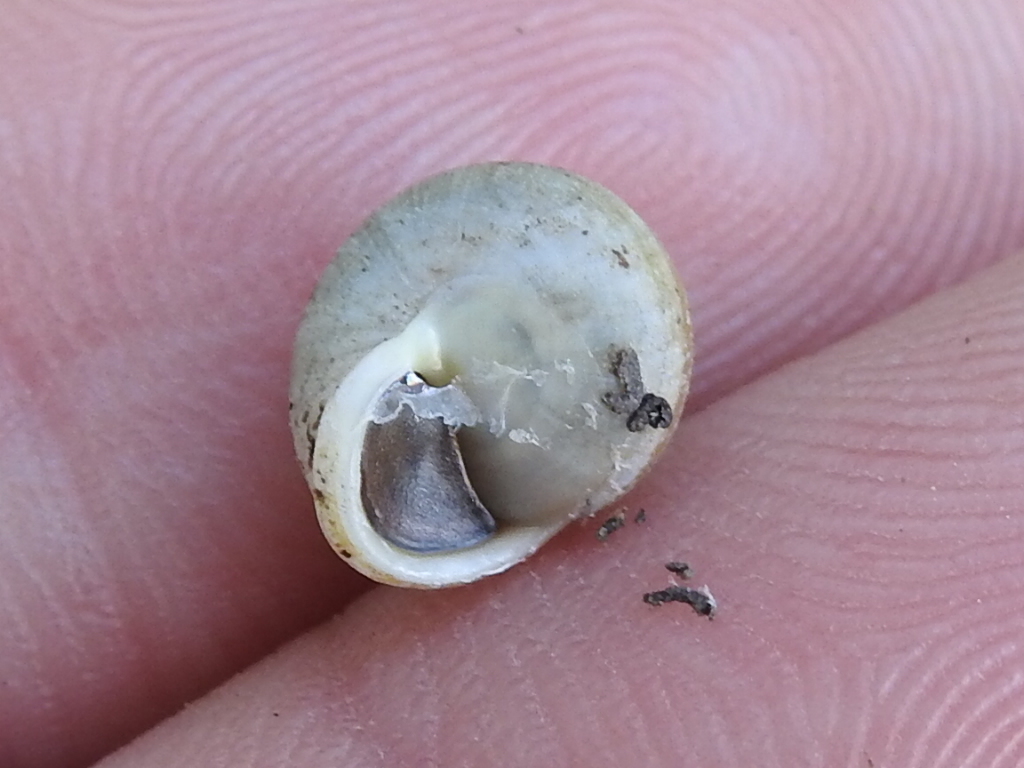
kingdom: Animalia
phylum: Mollusca
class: Gastropoda
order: Cycloneritida
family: Helicinidae
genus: Helicina
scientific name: Helicina orbiculata
